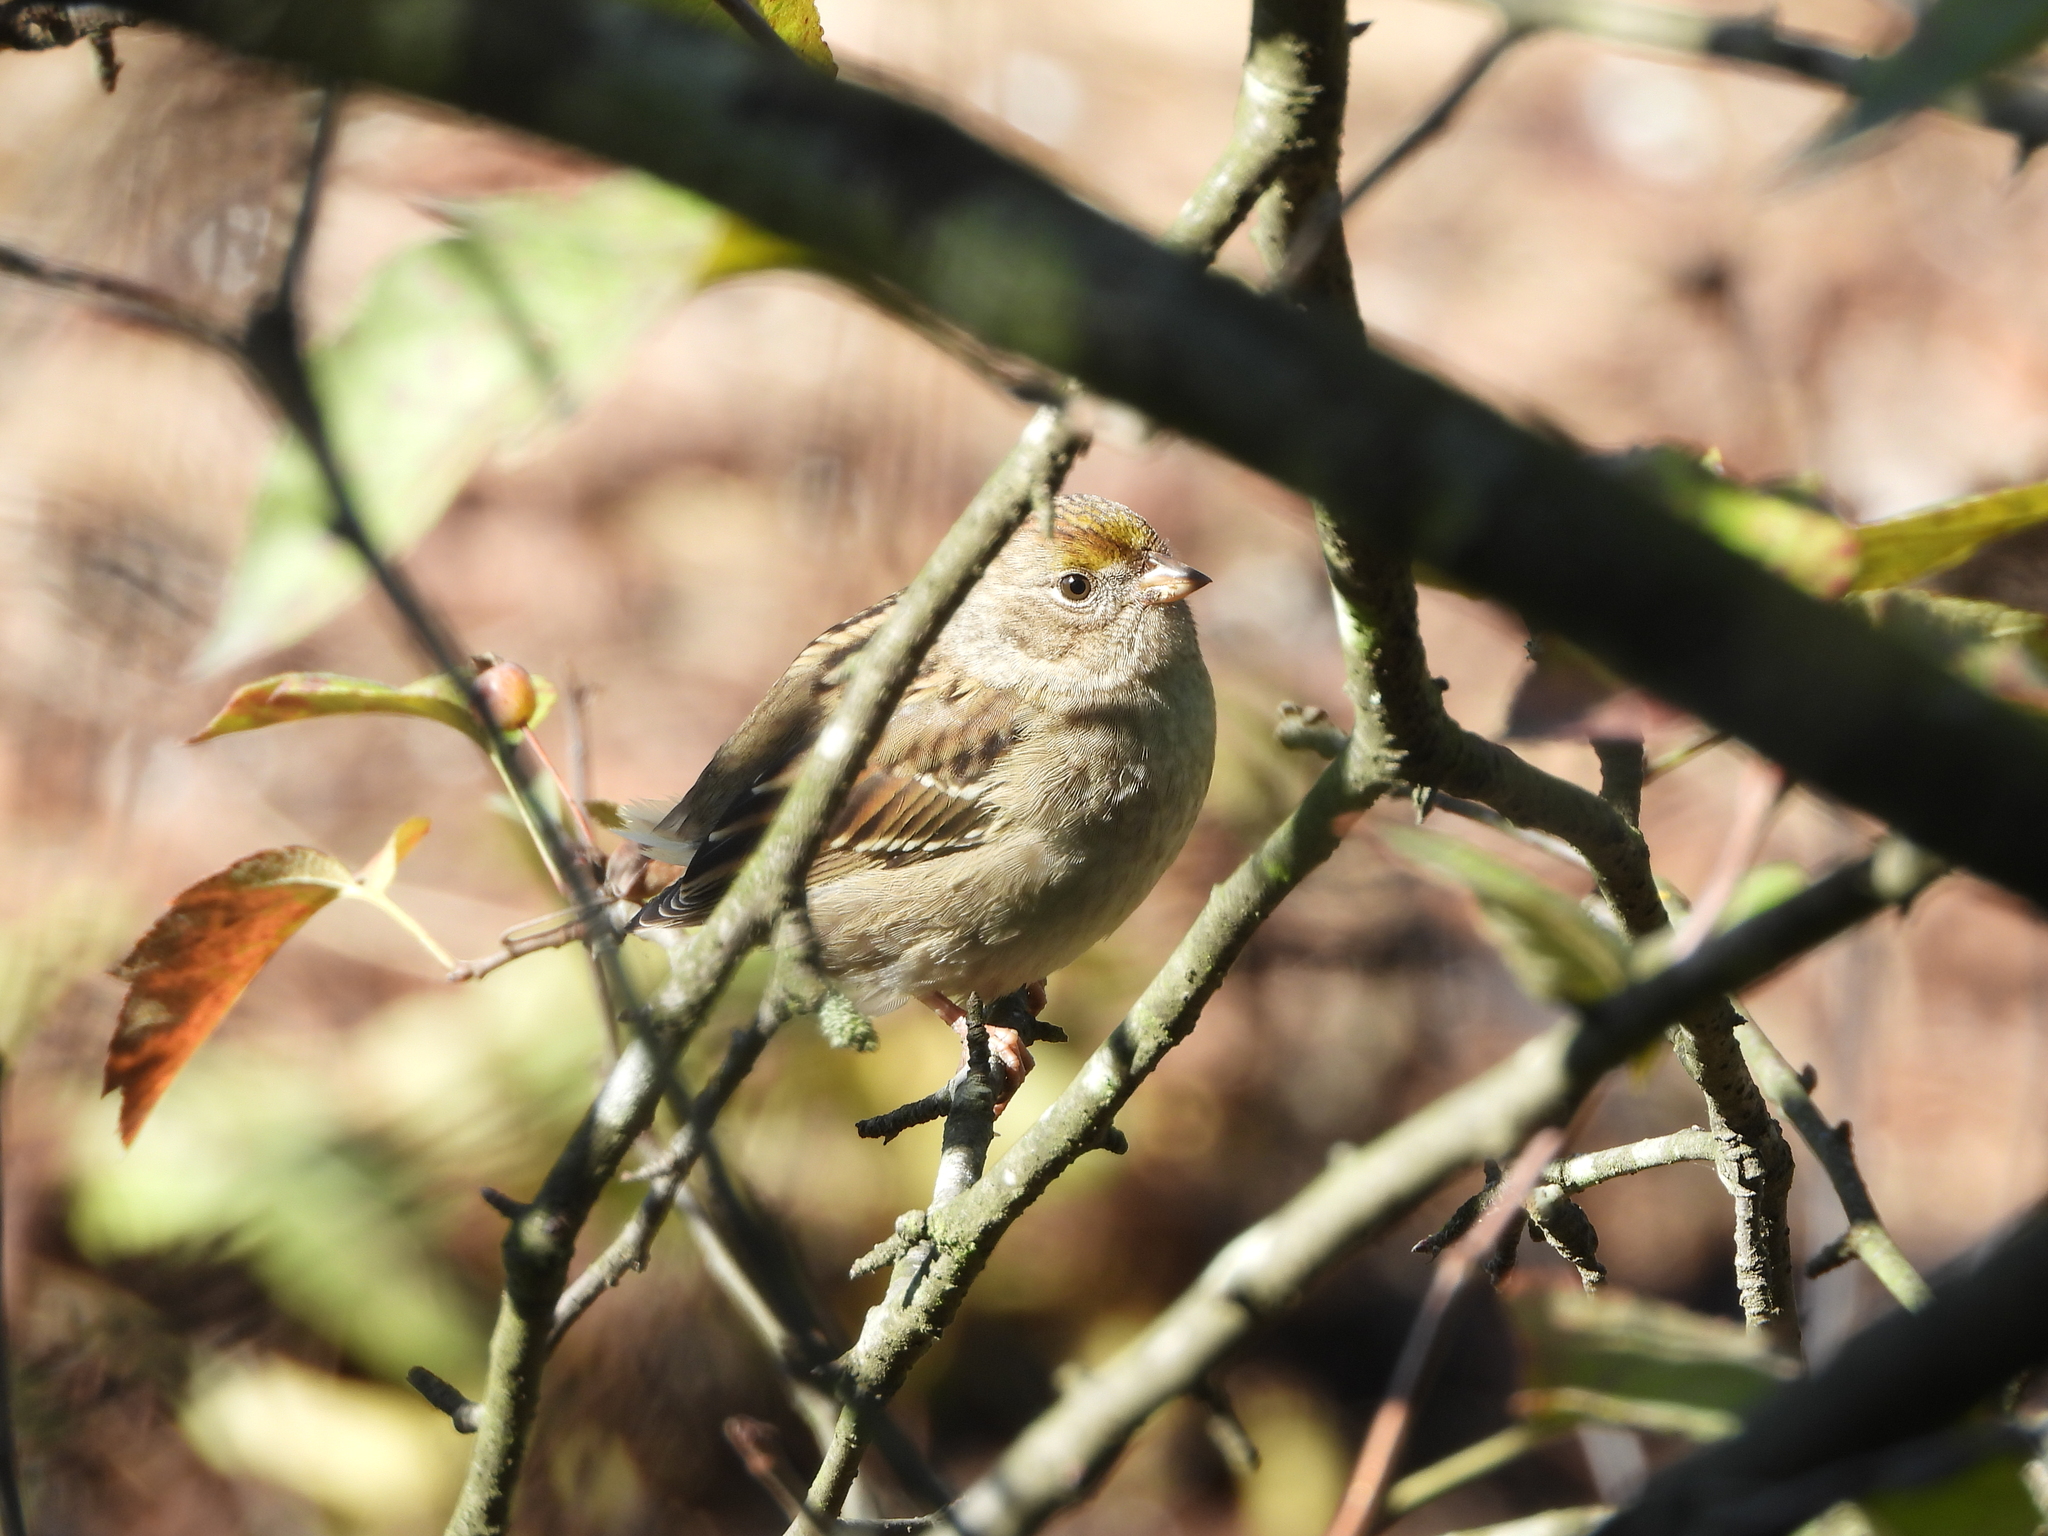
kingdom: Animalia
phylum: Chordata
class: Aves
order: Passeriformes
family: Passerellidae
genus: Zonotrichia
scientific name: Zonotrichia atricapilla
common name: Golden-crowned sparrow
